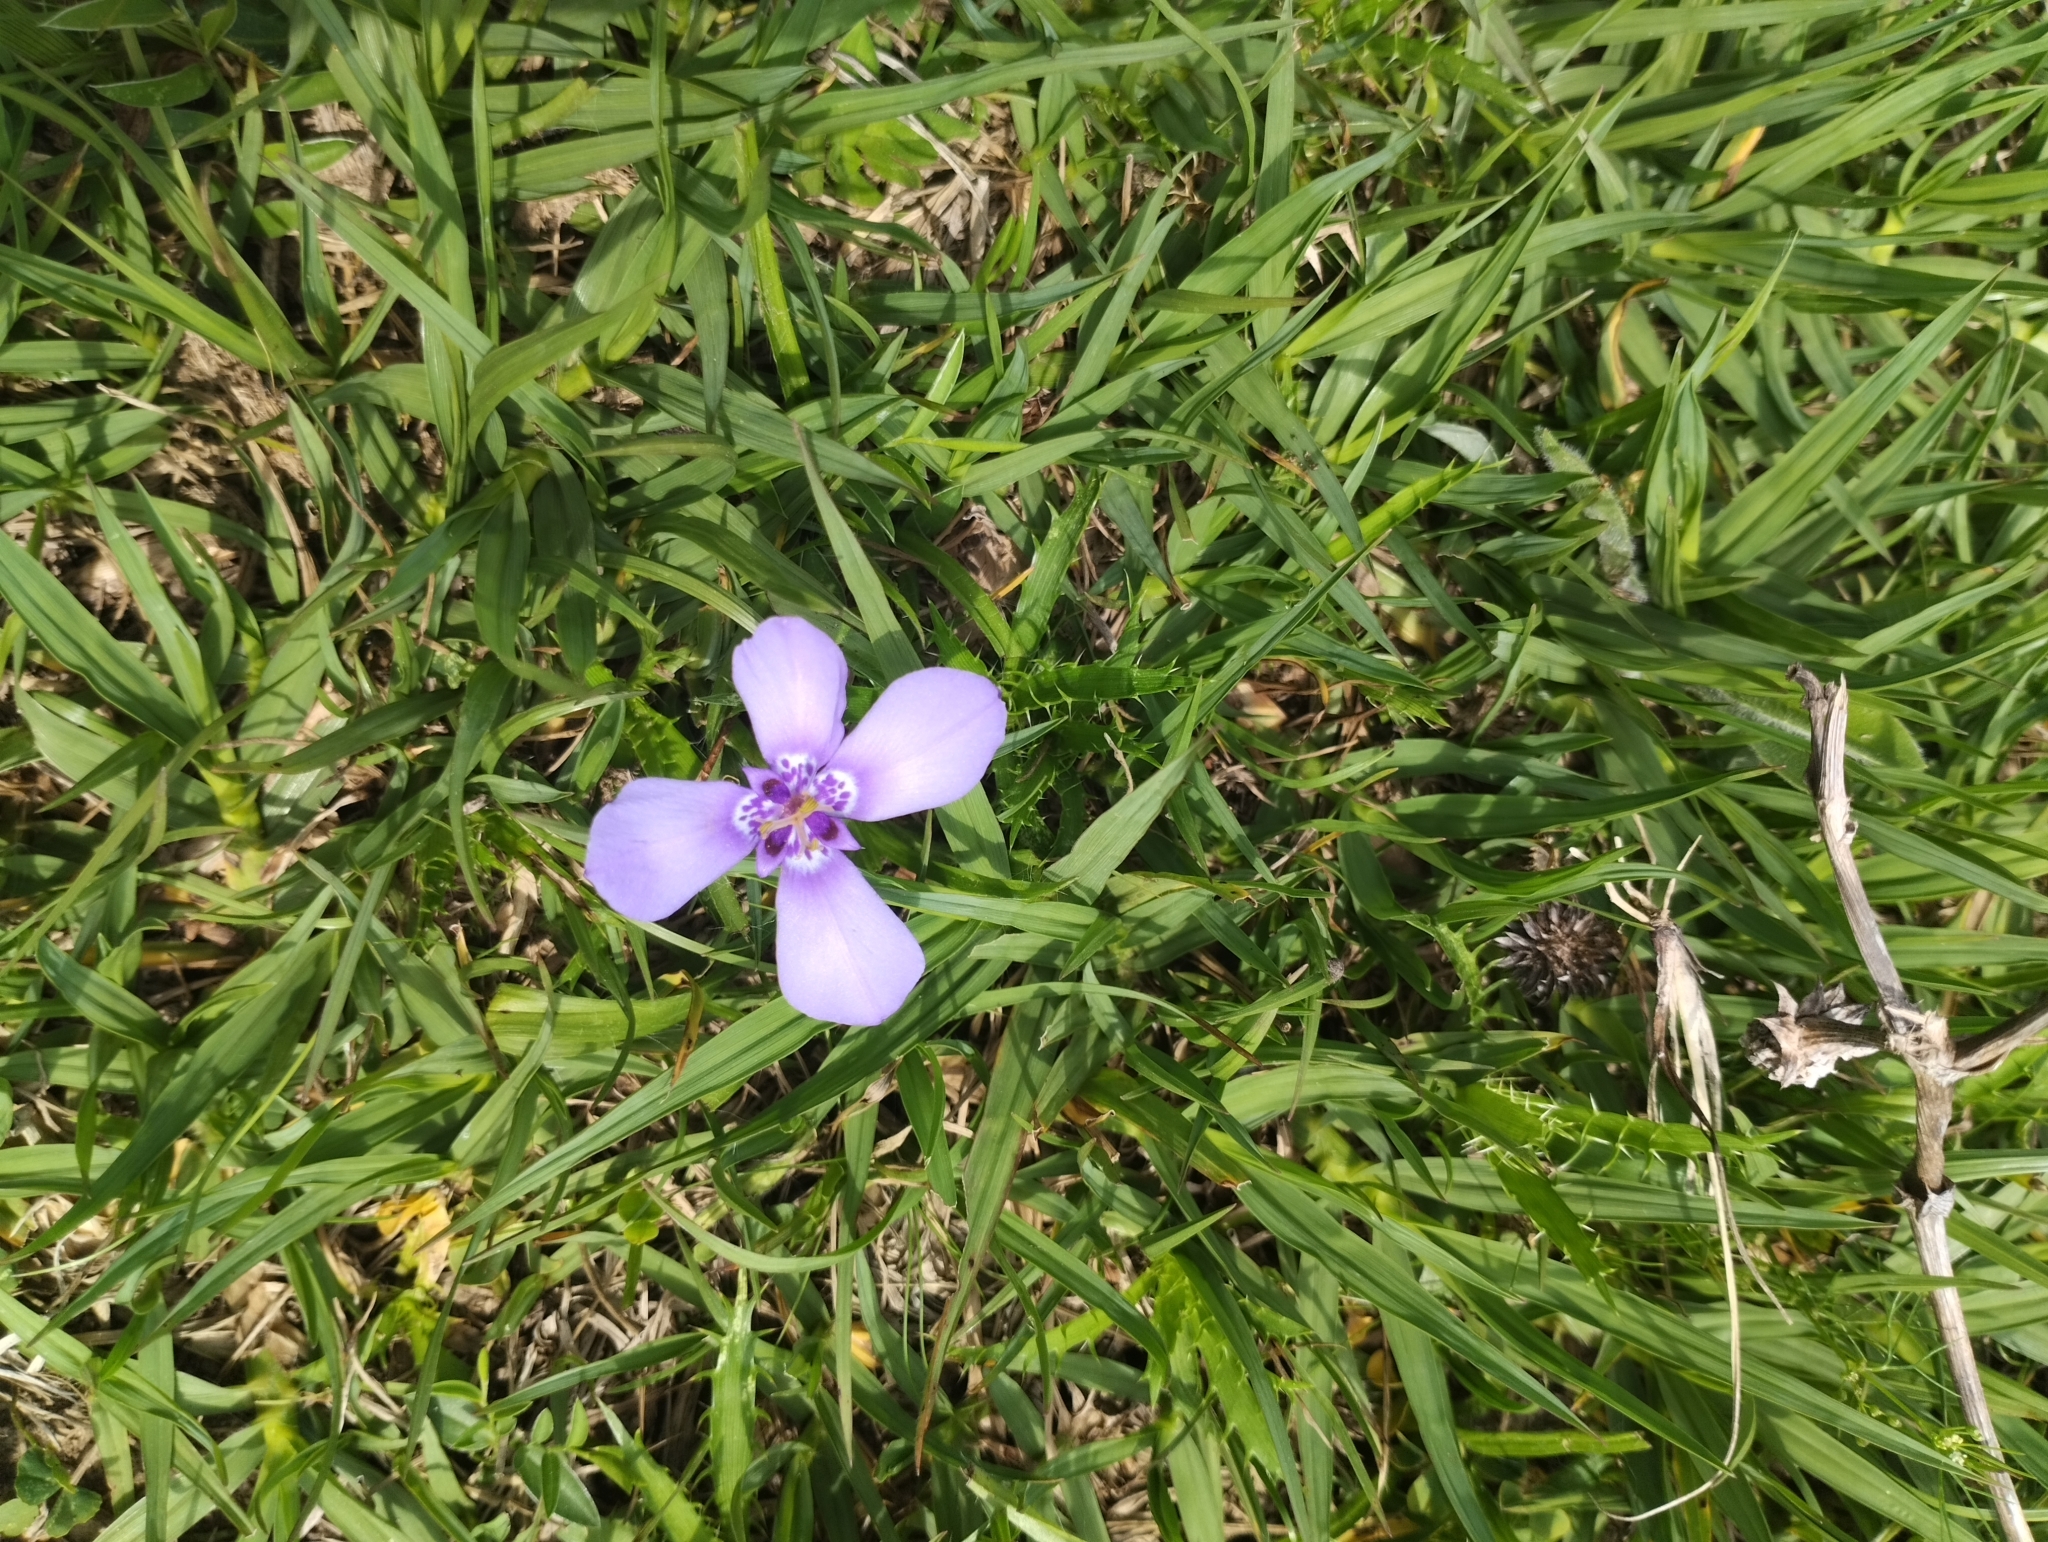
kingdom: Plantae
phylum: Tracheophyta
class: Liliopsida
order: Asparagales
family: Iridaceae
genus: Herbertia
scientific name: Herbertia lahue
